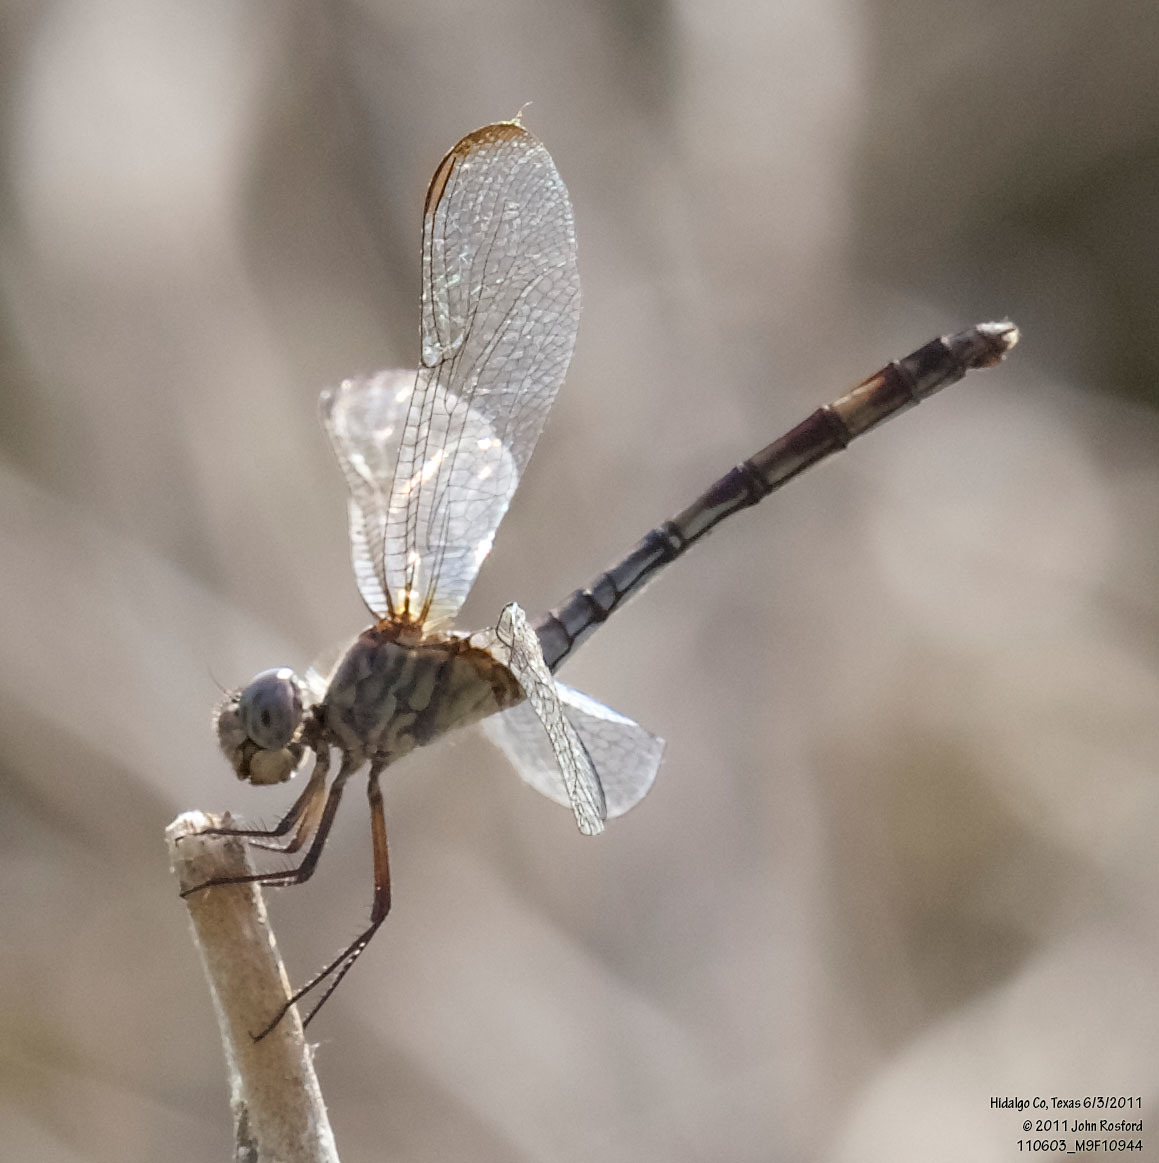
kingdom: Animalia
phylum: Arthropoda
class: Insecta
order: Odonata
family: Libellulidae
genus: Dythemis
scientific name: Dythemis nigrescens
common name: Black setwing
